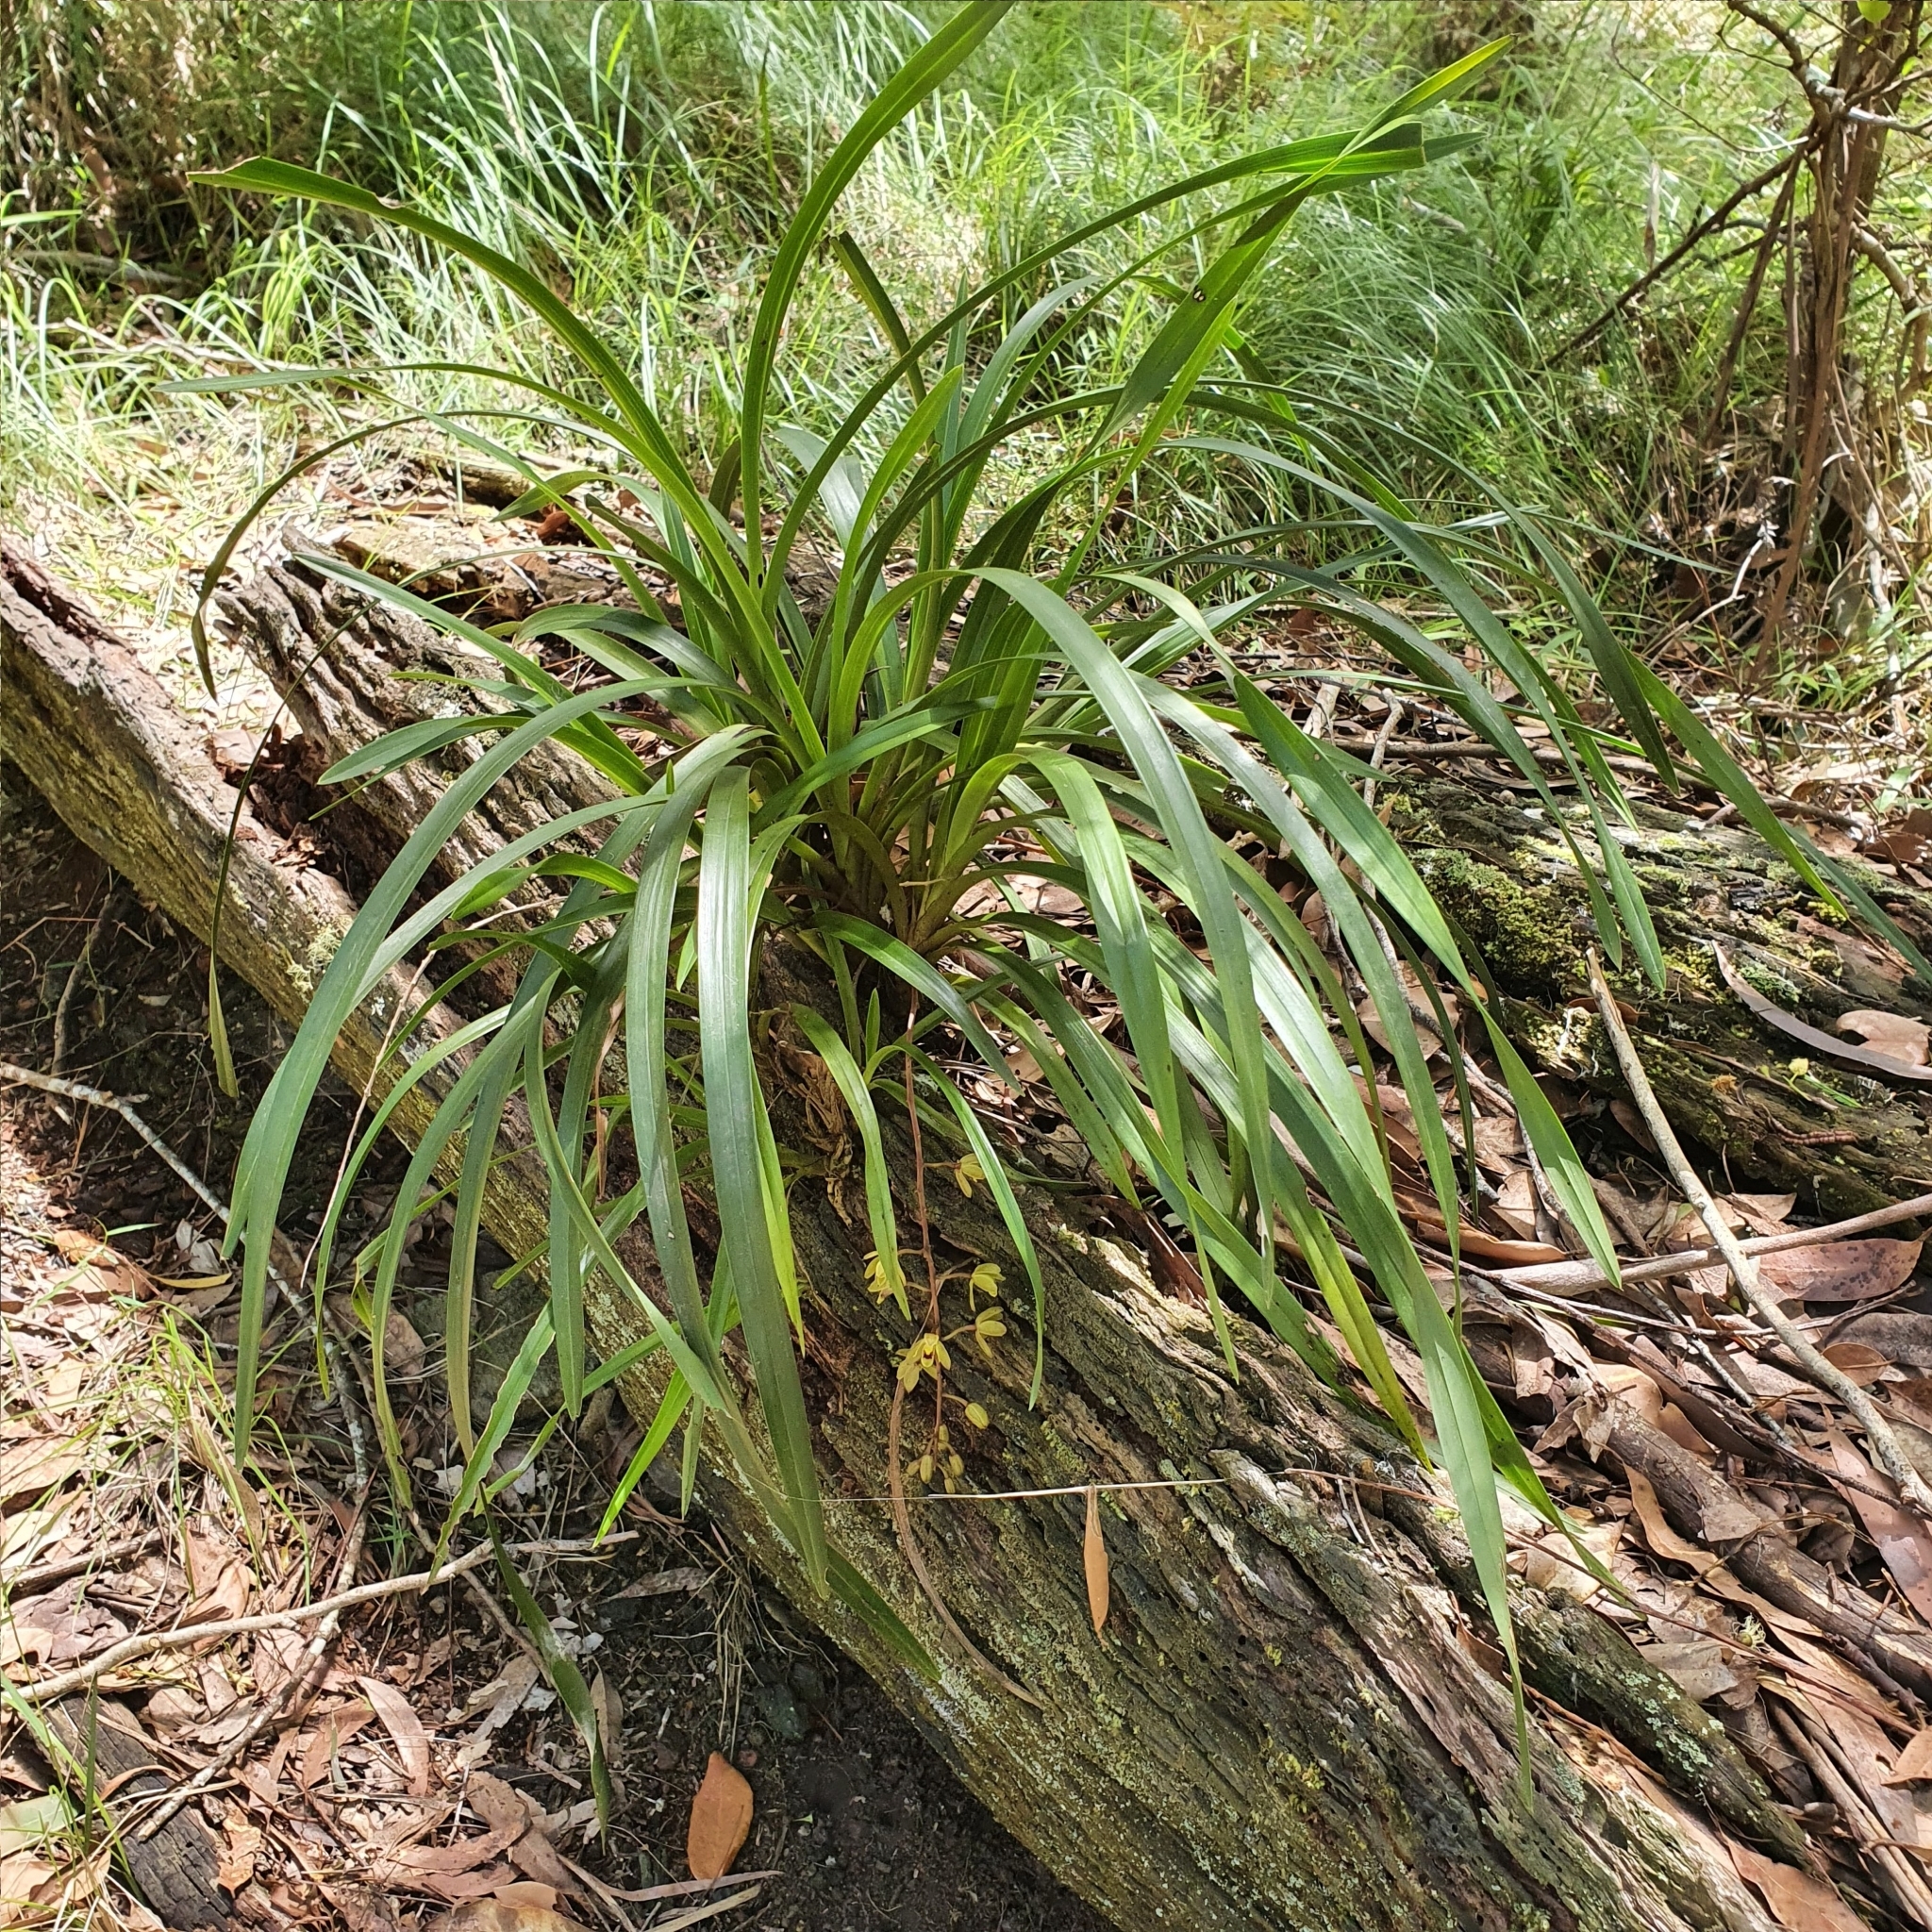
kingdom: Plantae
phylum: Tracheophyta
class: Liliopsida
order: Asparagales
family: Orchidaceae
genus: Cymbidium
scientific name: Cymbidium suave
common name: Snake orchid
